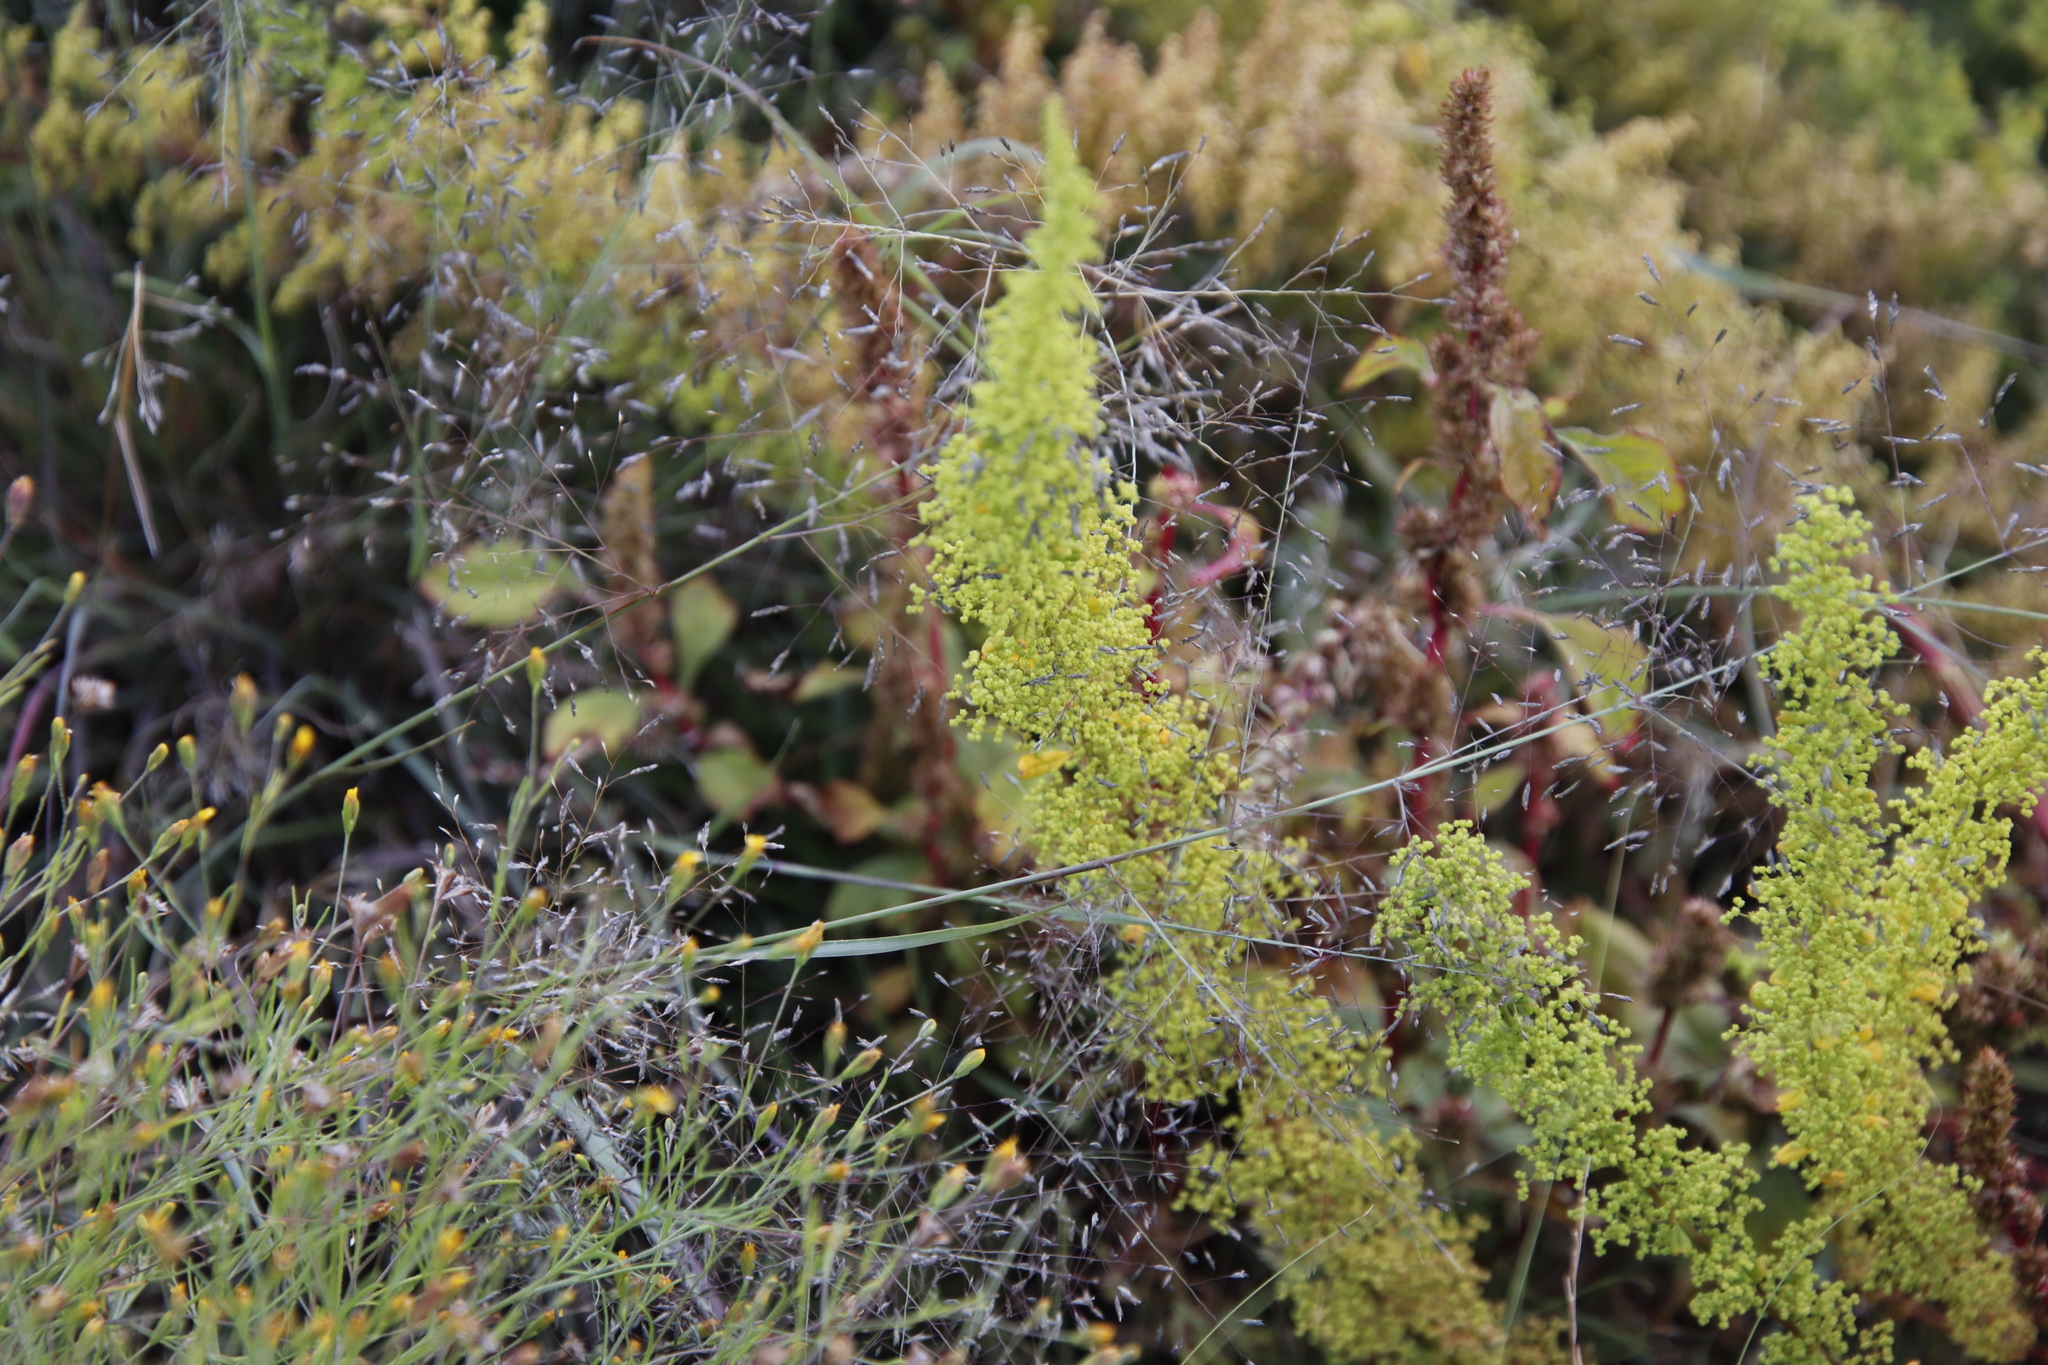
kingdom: Plantae
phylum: Tracheophyta
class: Liliopsida
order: Asparagales
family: Asparagaceae
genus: Asparagus
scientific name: Asparagus stellatus
